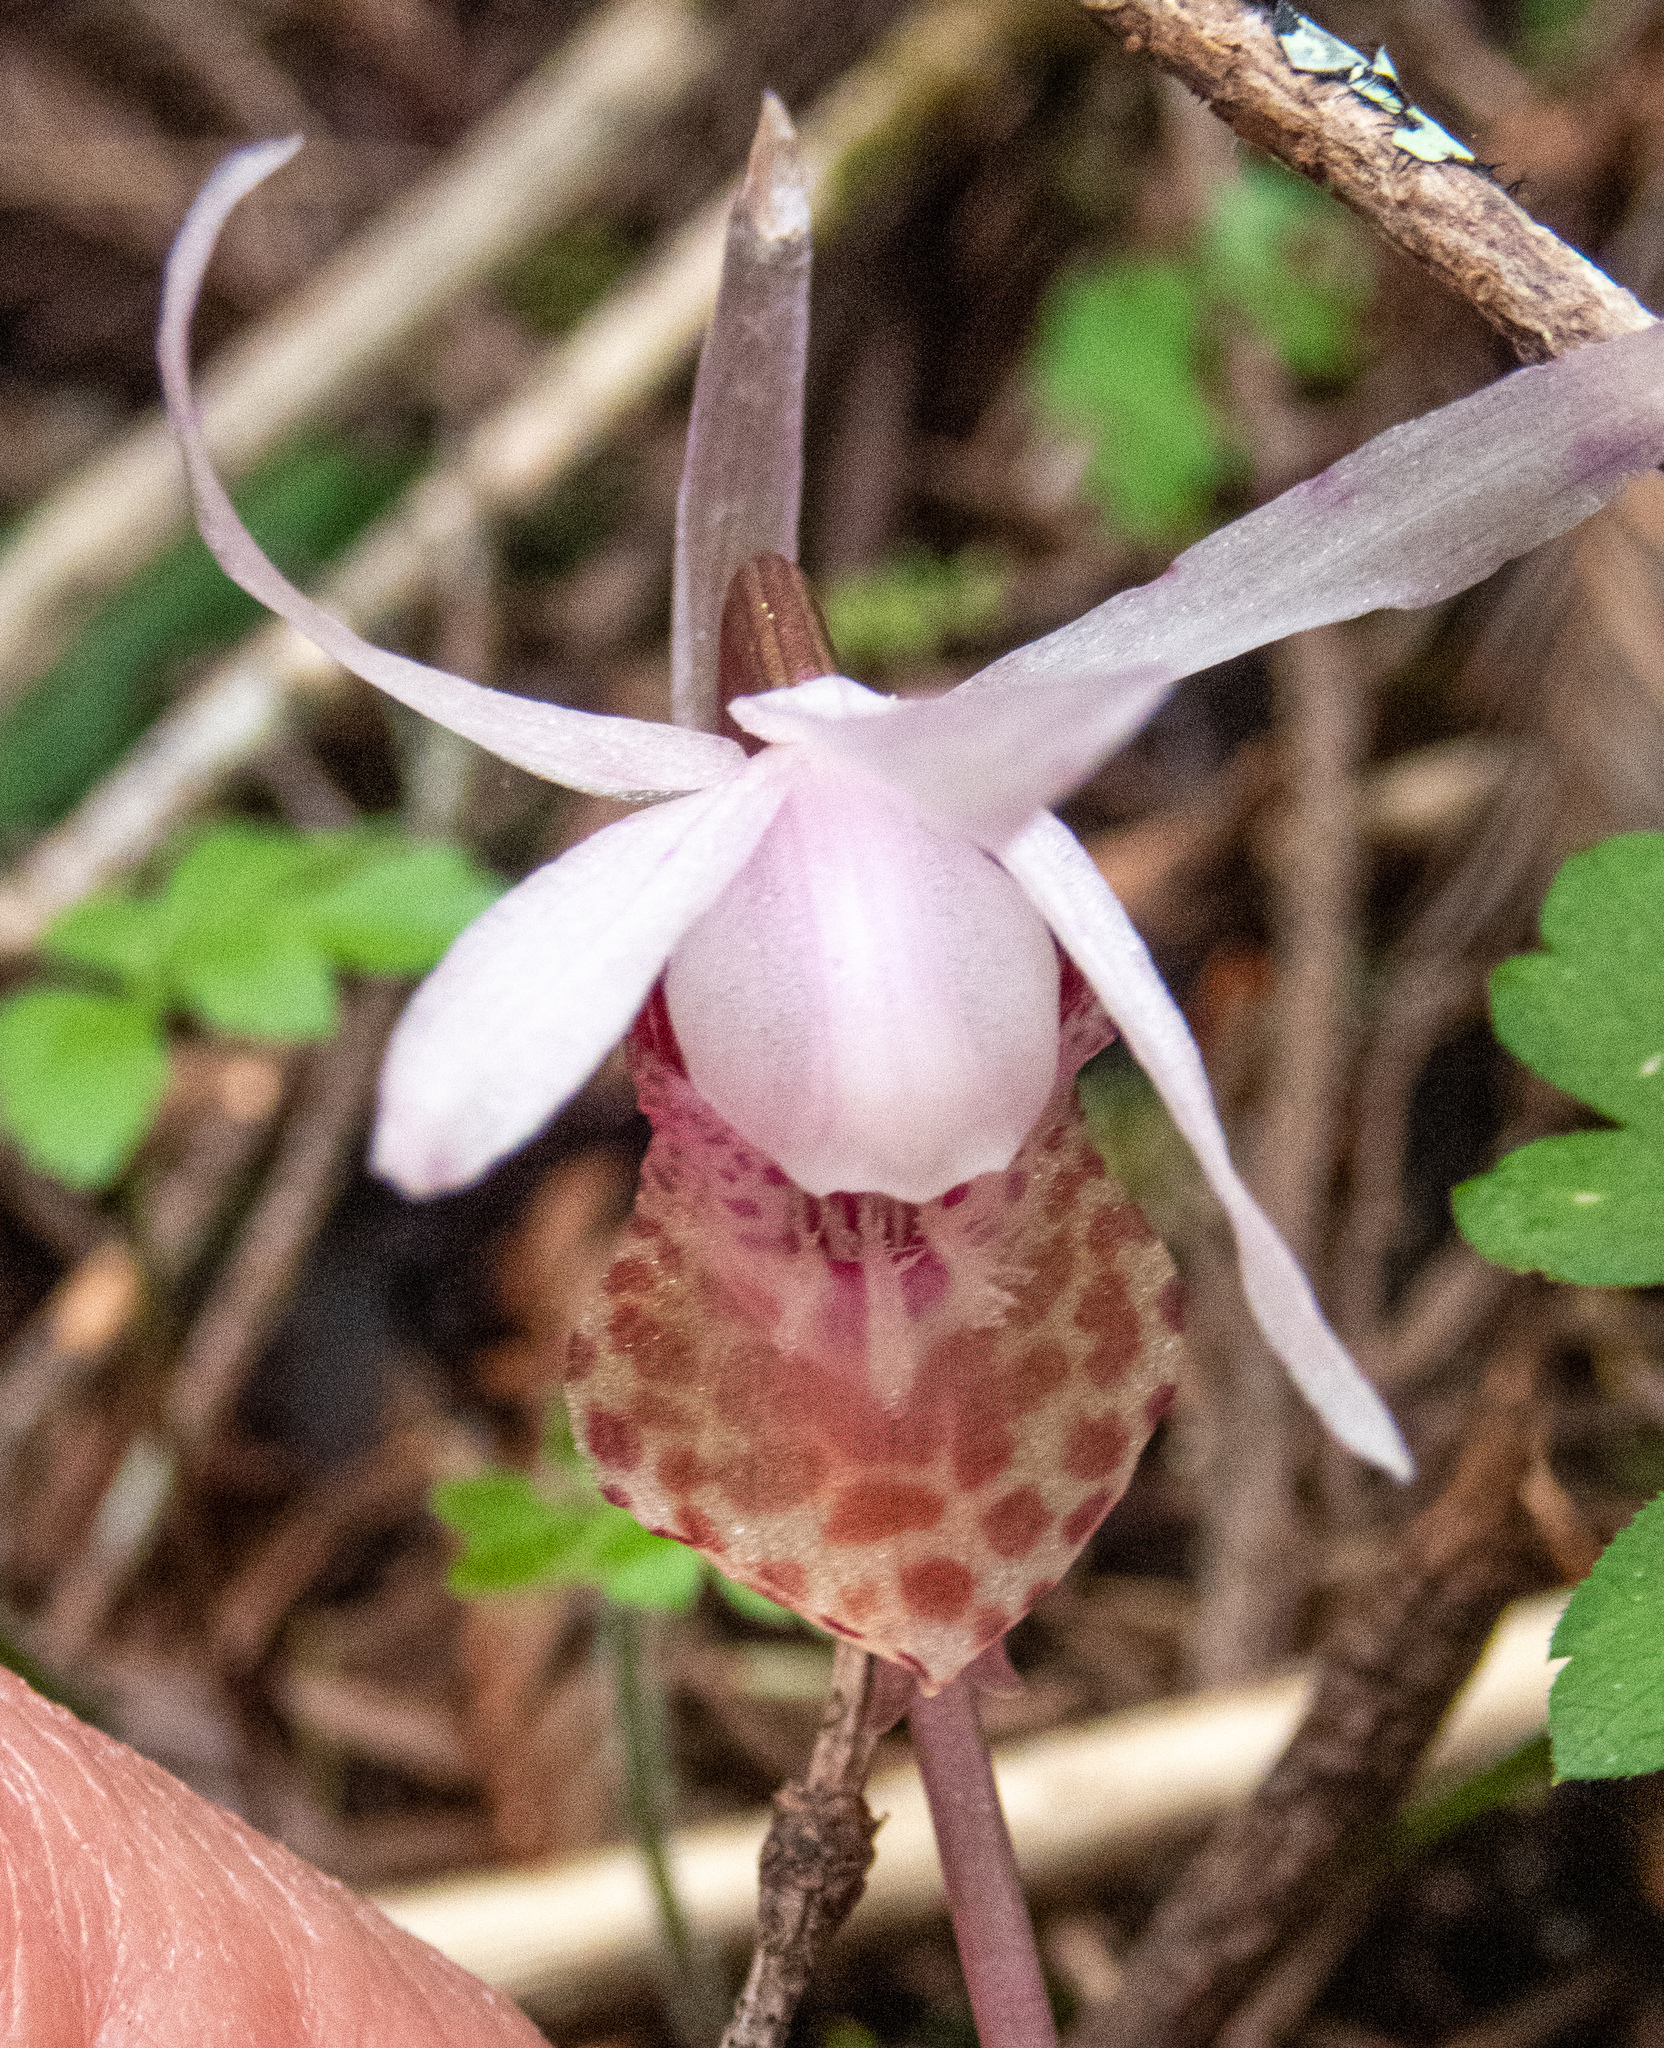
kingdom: Plantae
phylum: Tracheophyta
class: Liliopsida
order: Asparagales
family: Orchidaceae
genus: Calypso
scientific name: Calypso bulbosa
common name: Calypso
